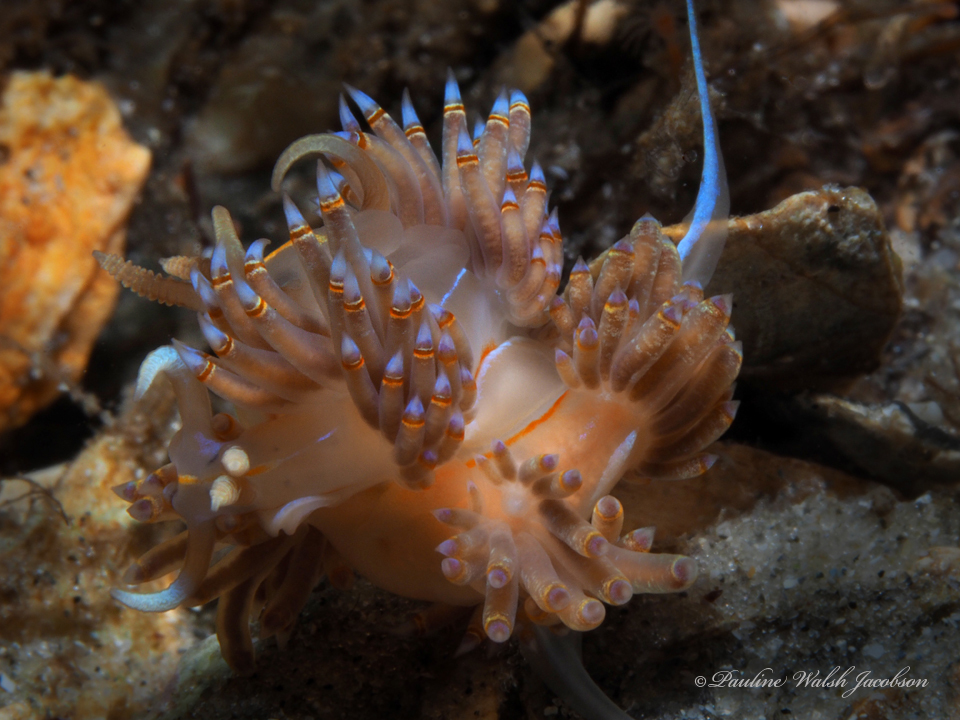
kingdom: Animalia
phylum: Mollusca
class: Gastropoda
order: Nudibranchia
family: Myrrhinidae
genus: Dondice
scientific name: Dondice jupiteriensis
